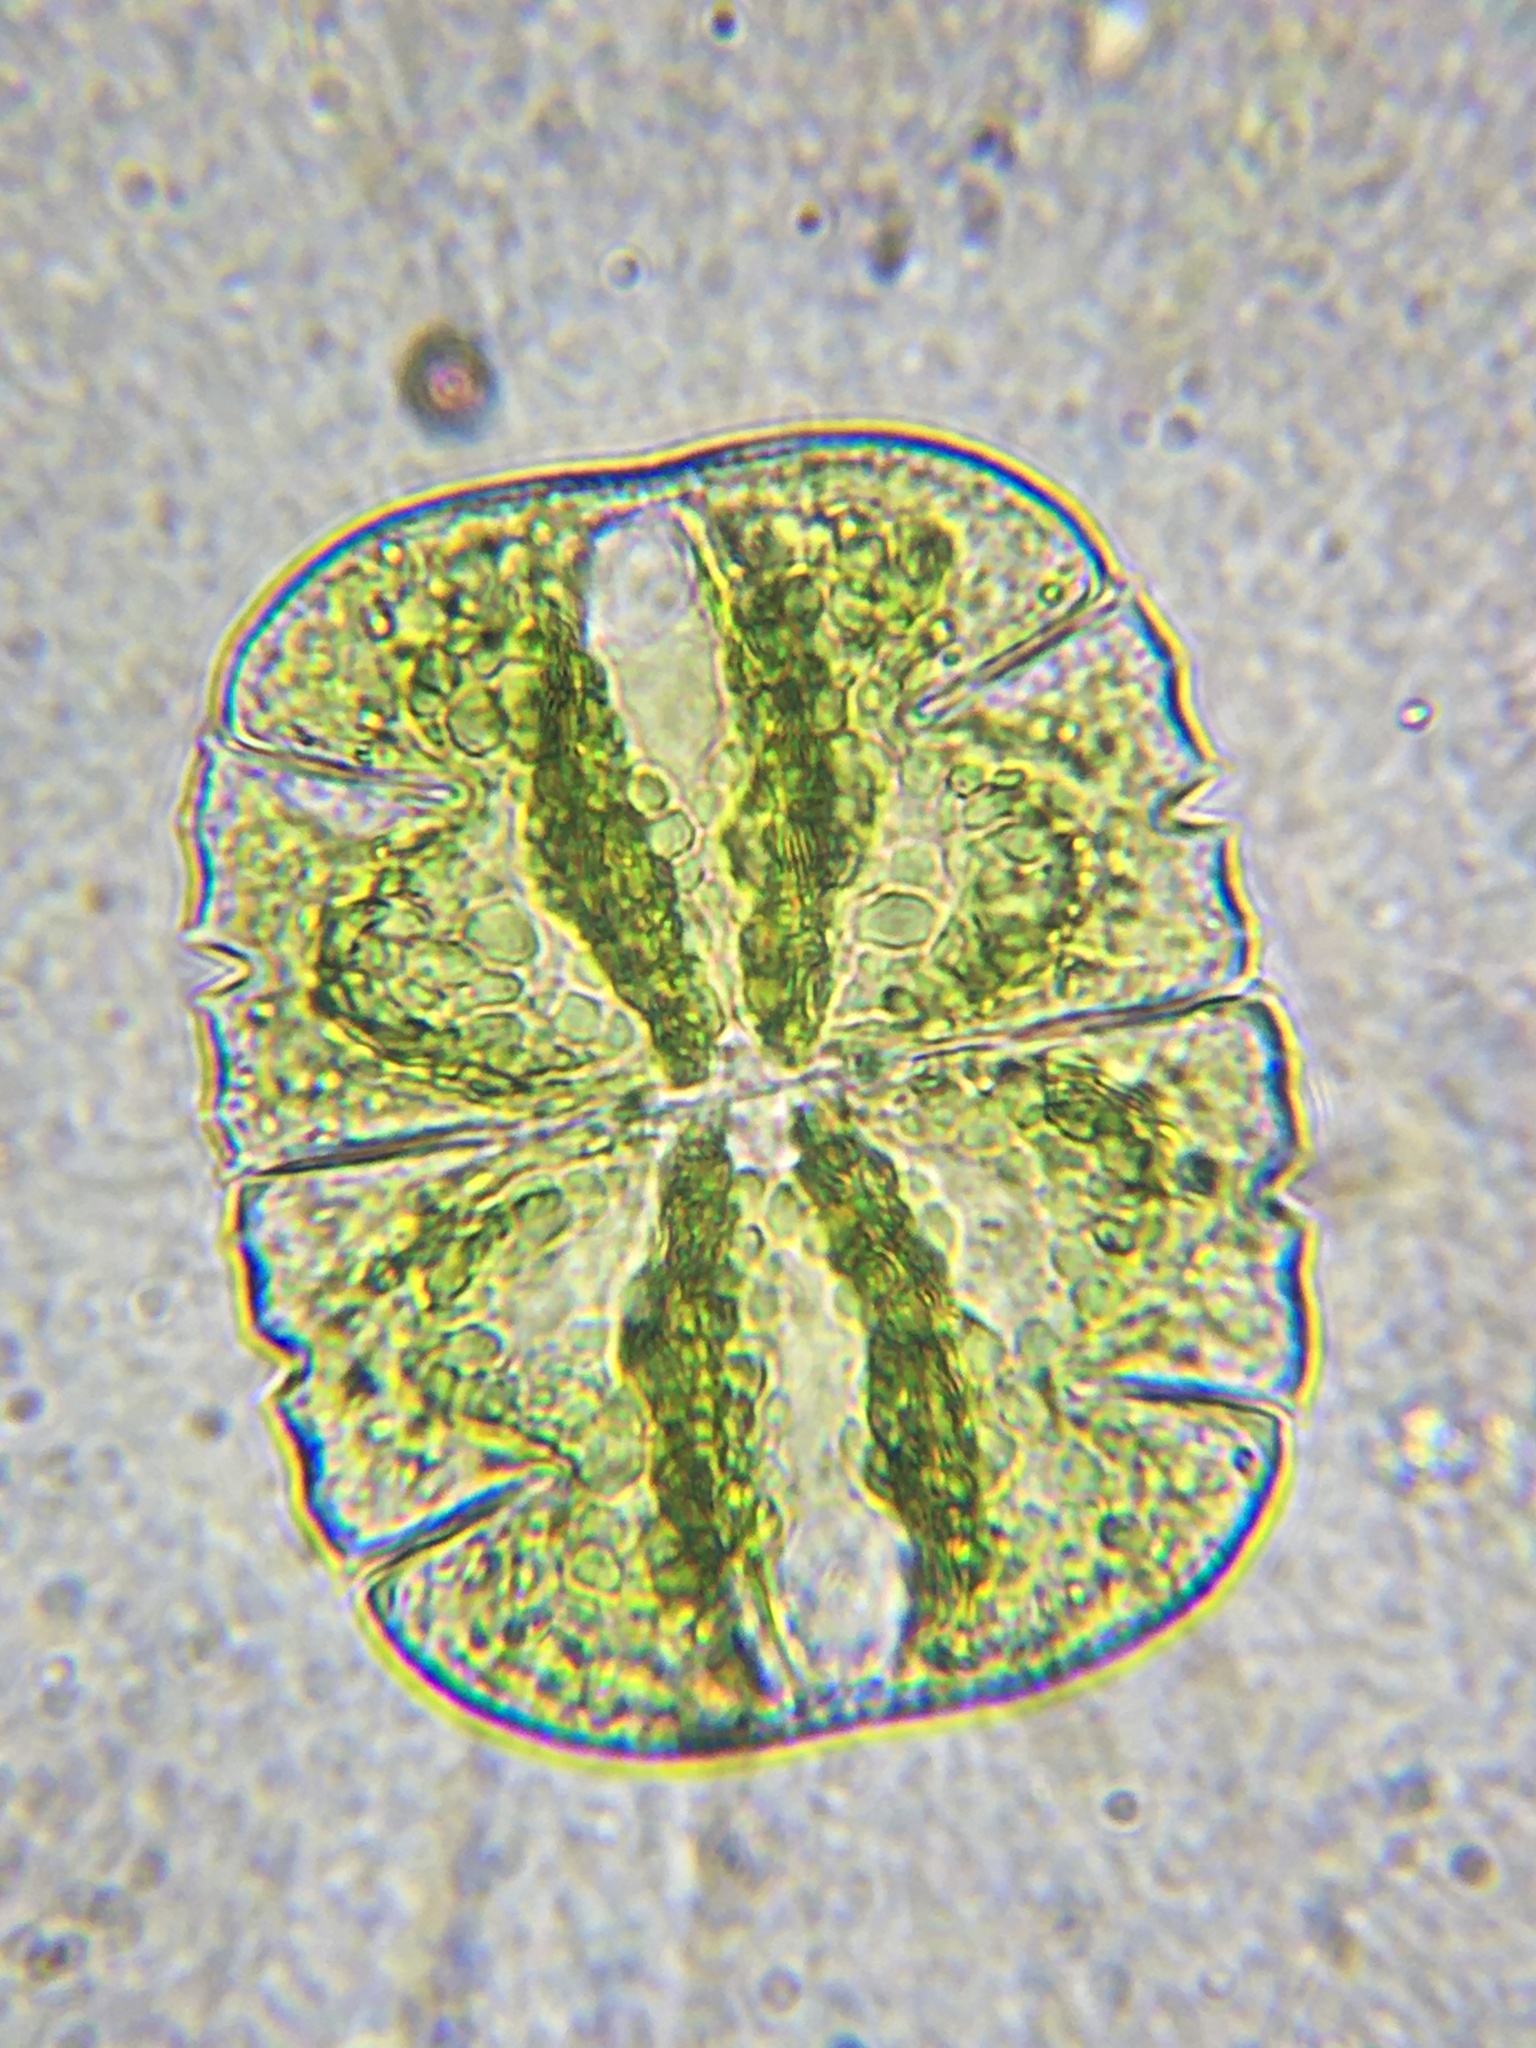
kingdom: Plantae
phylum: Charophyta
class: Conjugatophyceae
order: Desmidiales
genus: Micrasterias
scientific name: Micrasterias truncata
